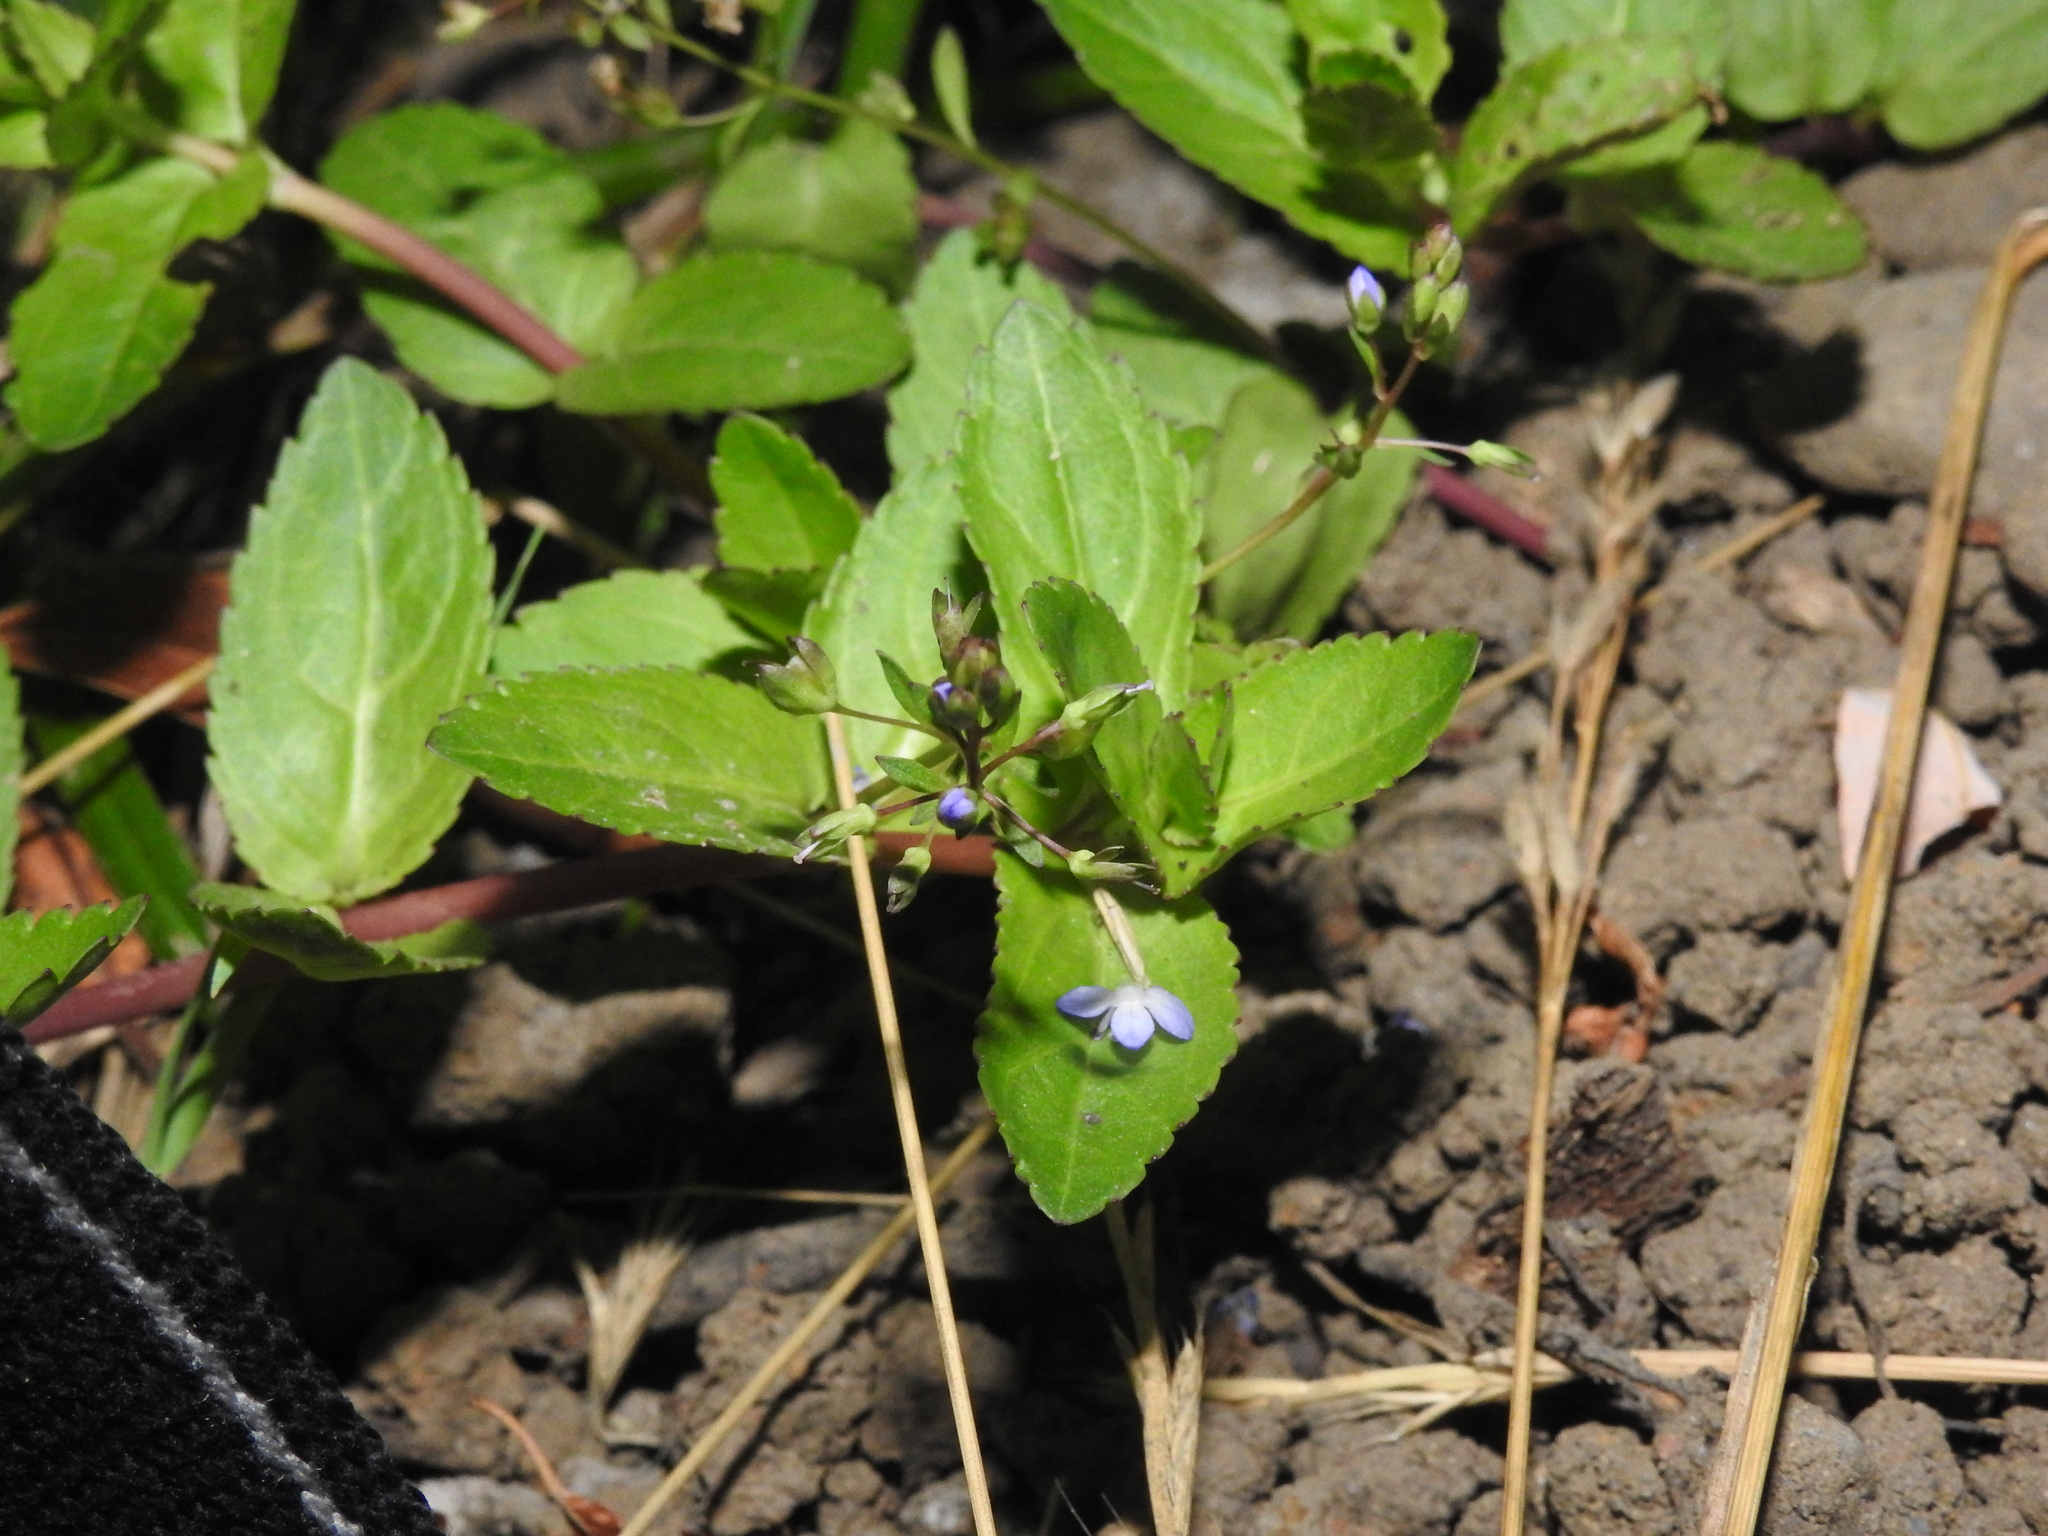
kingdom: Plantae
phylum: Tracheophyta
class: Magnoliopsida
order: Lamiales
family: Plantaginaceae
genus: Veronica
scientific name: Veronica americana
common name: American brooklime
